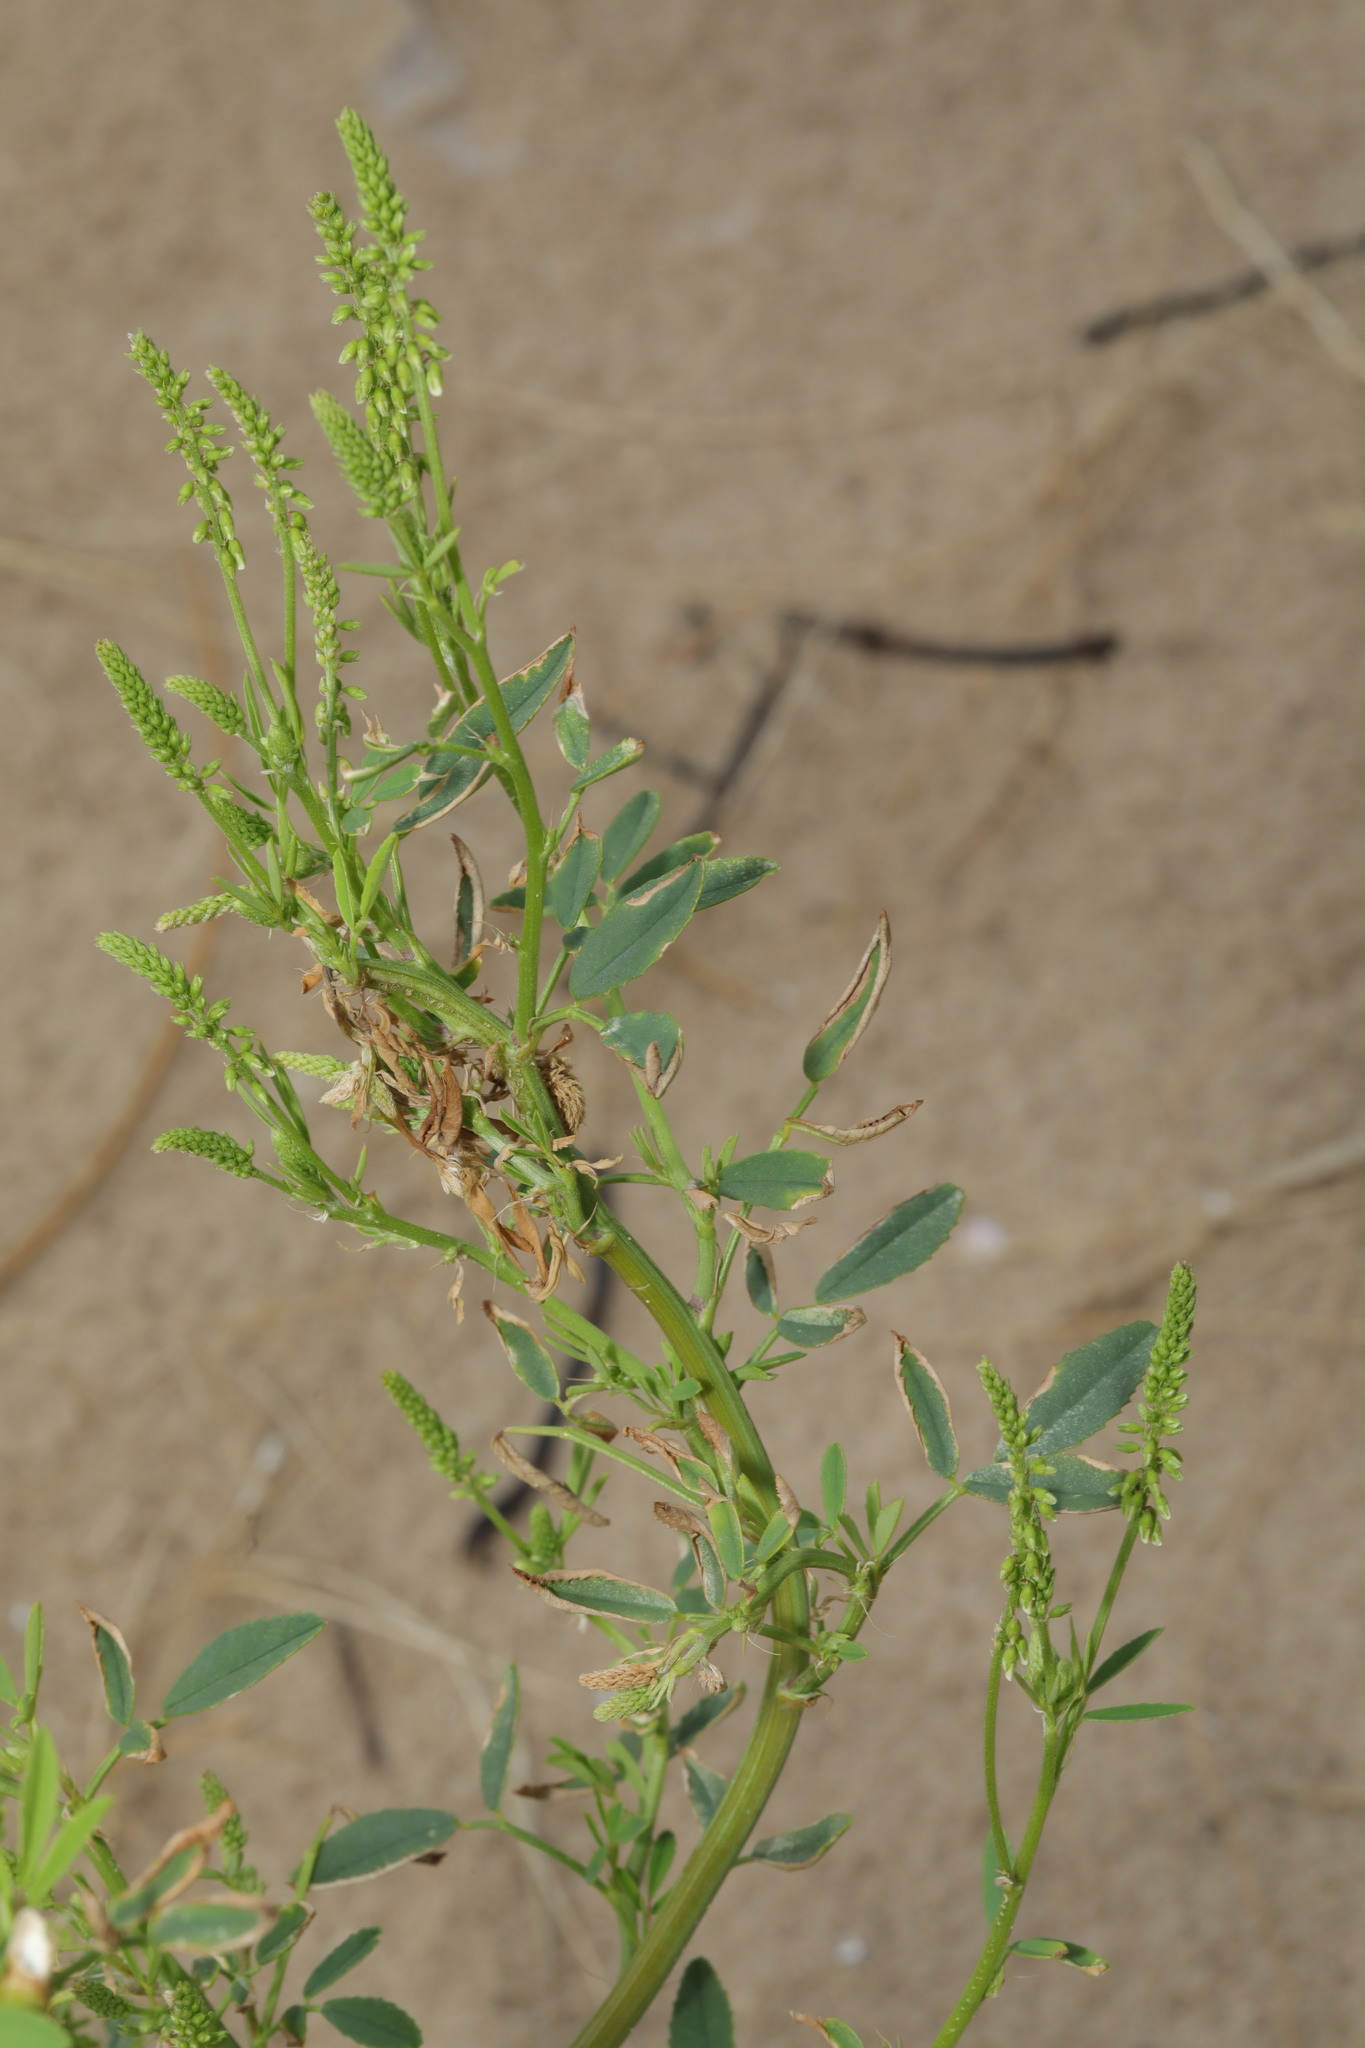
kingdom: Plantae
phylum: Tracheophyta
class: Magnoliopsida
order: Fabales
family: Fabaceae
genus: Melilotus
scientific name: Melilotus albus
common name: White melilot
